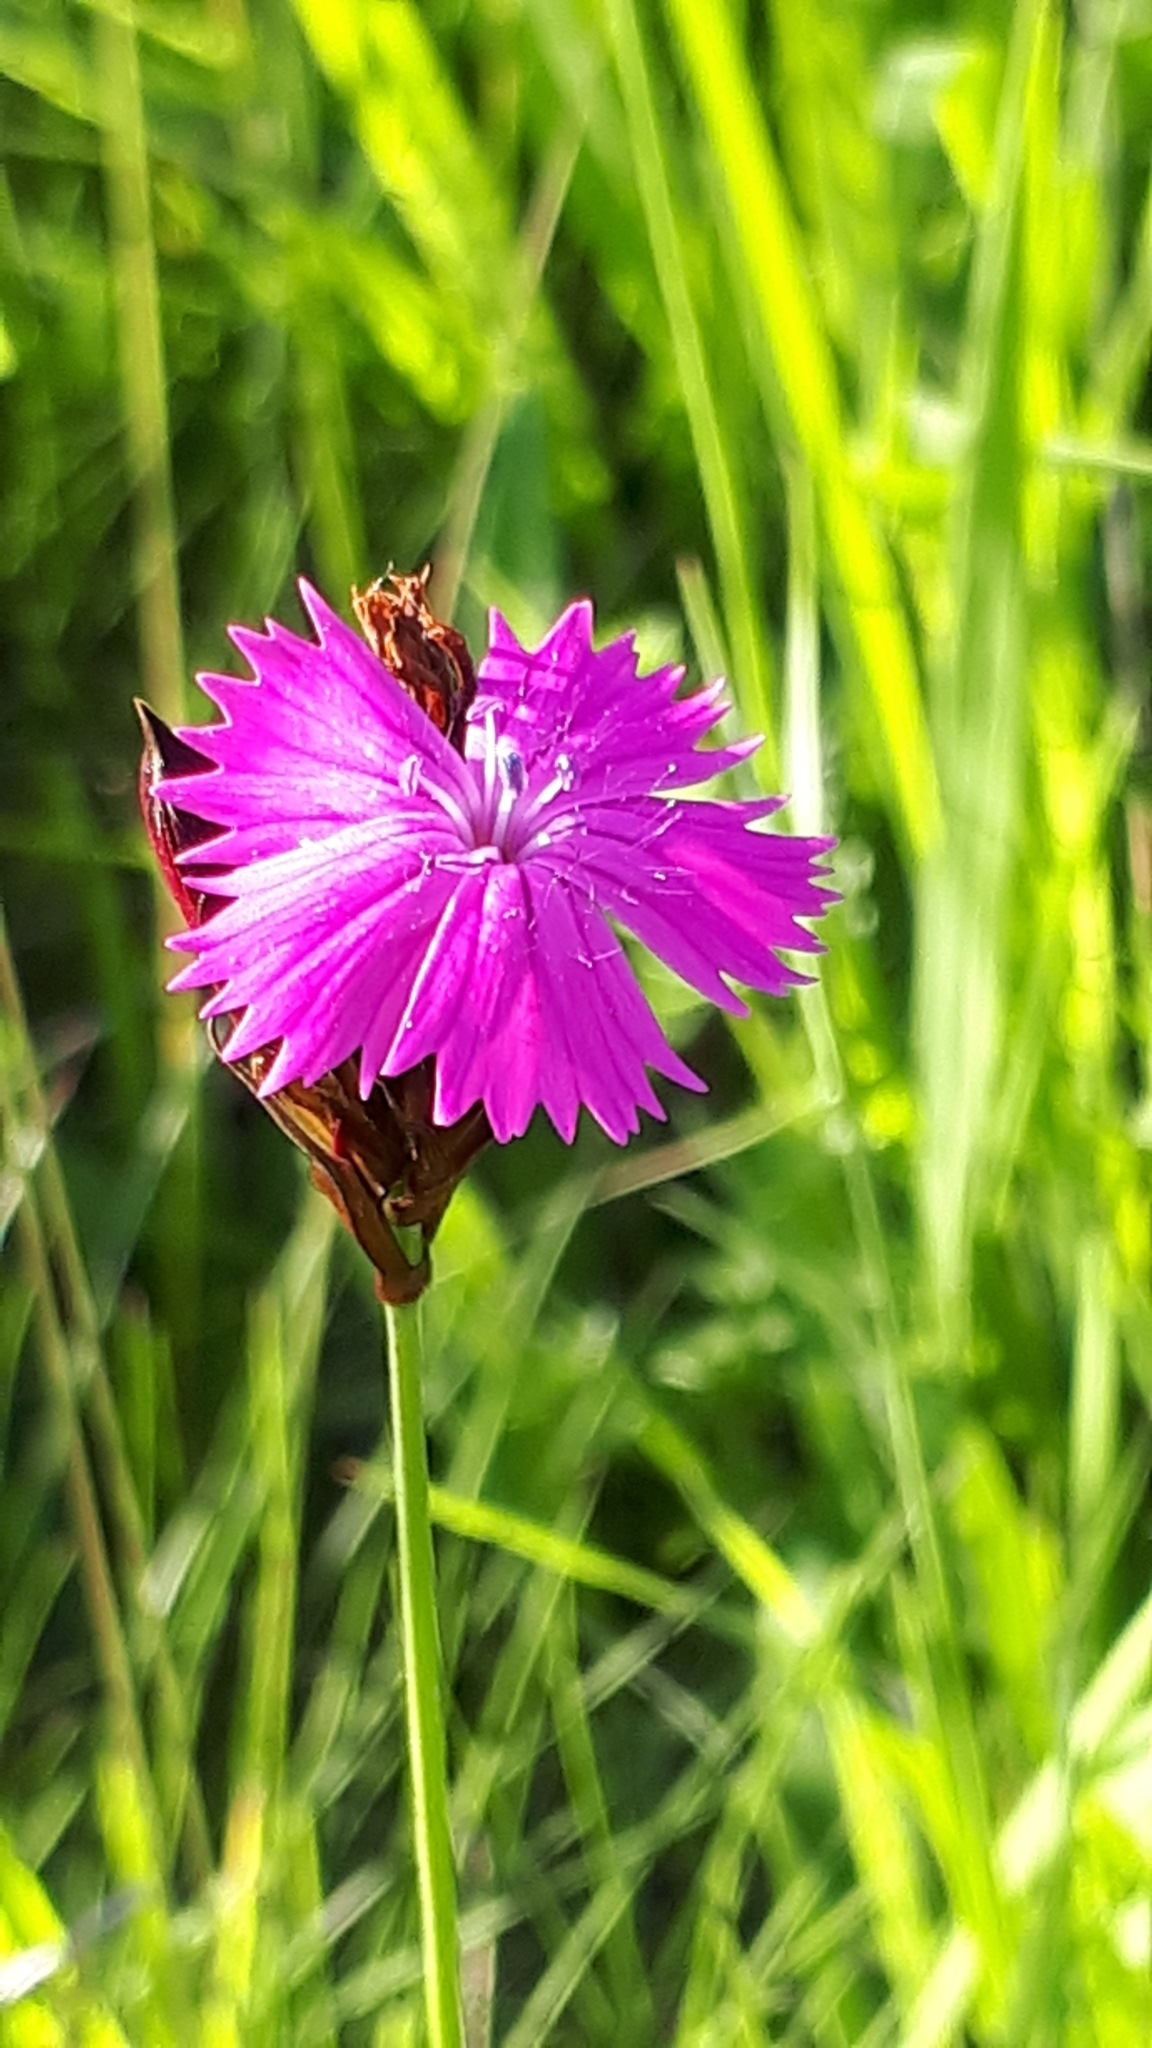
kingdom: Plantae
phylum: Tracheophyta
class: Magnoliopsida
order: Caryophyllales
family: Caryophyllaceae
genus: Dianthus
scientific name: Dianthus carthusianorum
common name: Carthusian pink
